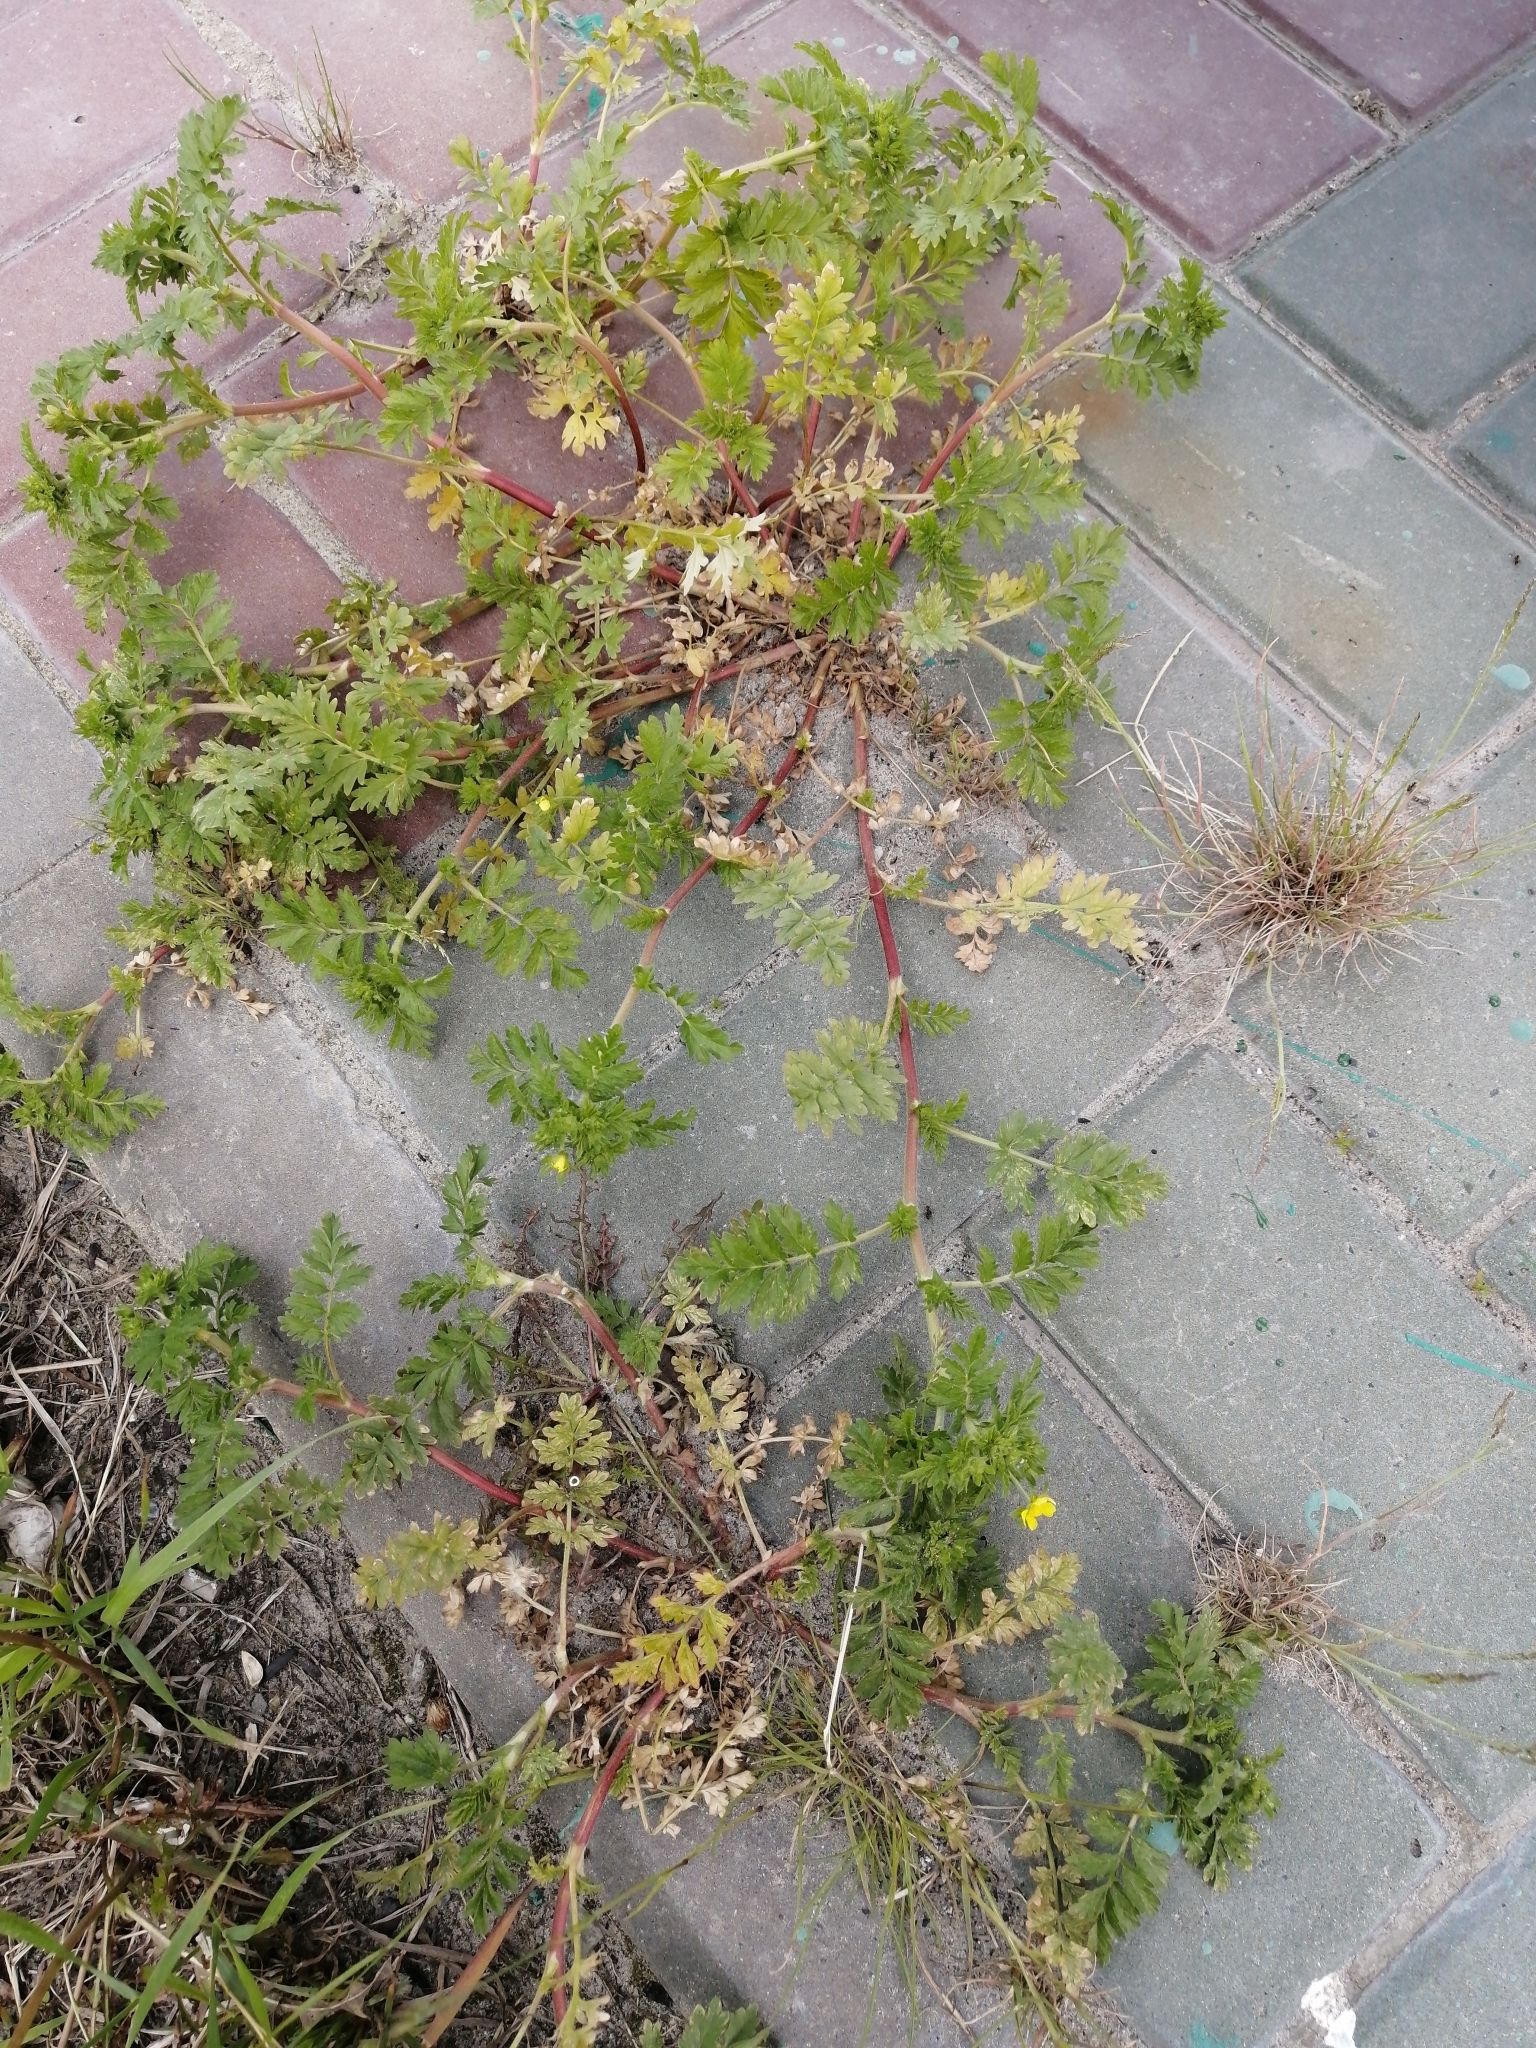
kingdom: Plantae
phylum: Tracheophyta
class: Magnoliopsida
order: Rosales
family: Rosaceae
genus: Potentilla
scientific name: Potentilla supina
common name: Prostrate cinquefoil
